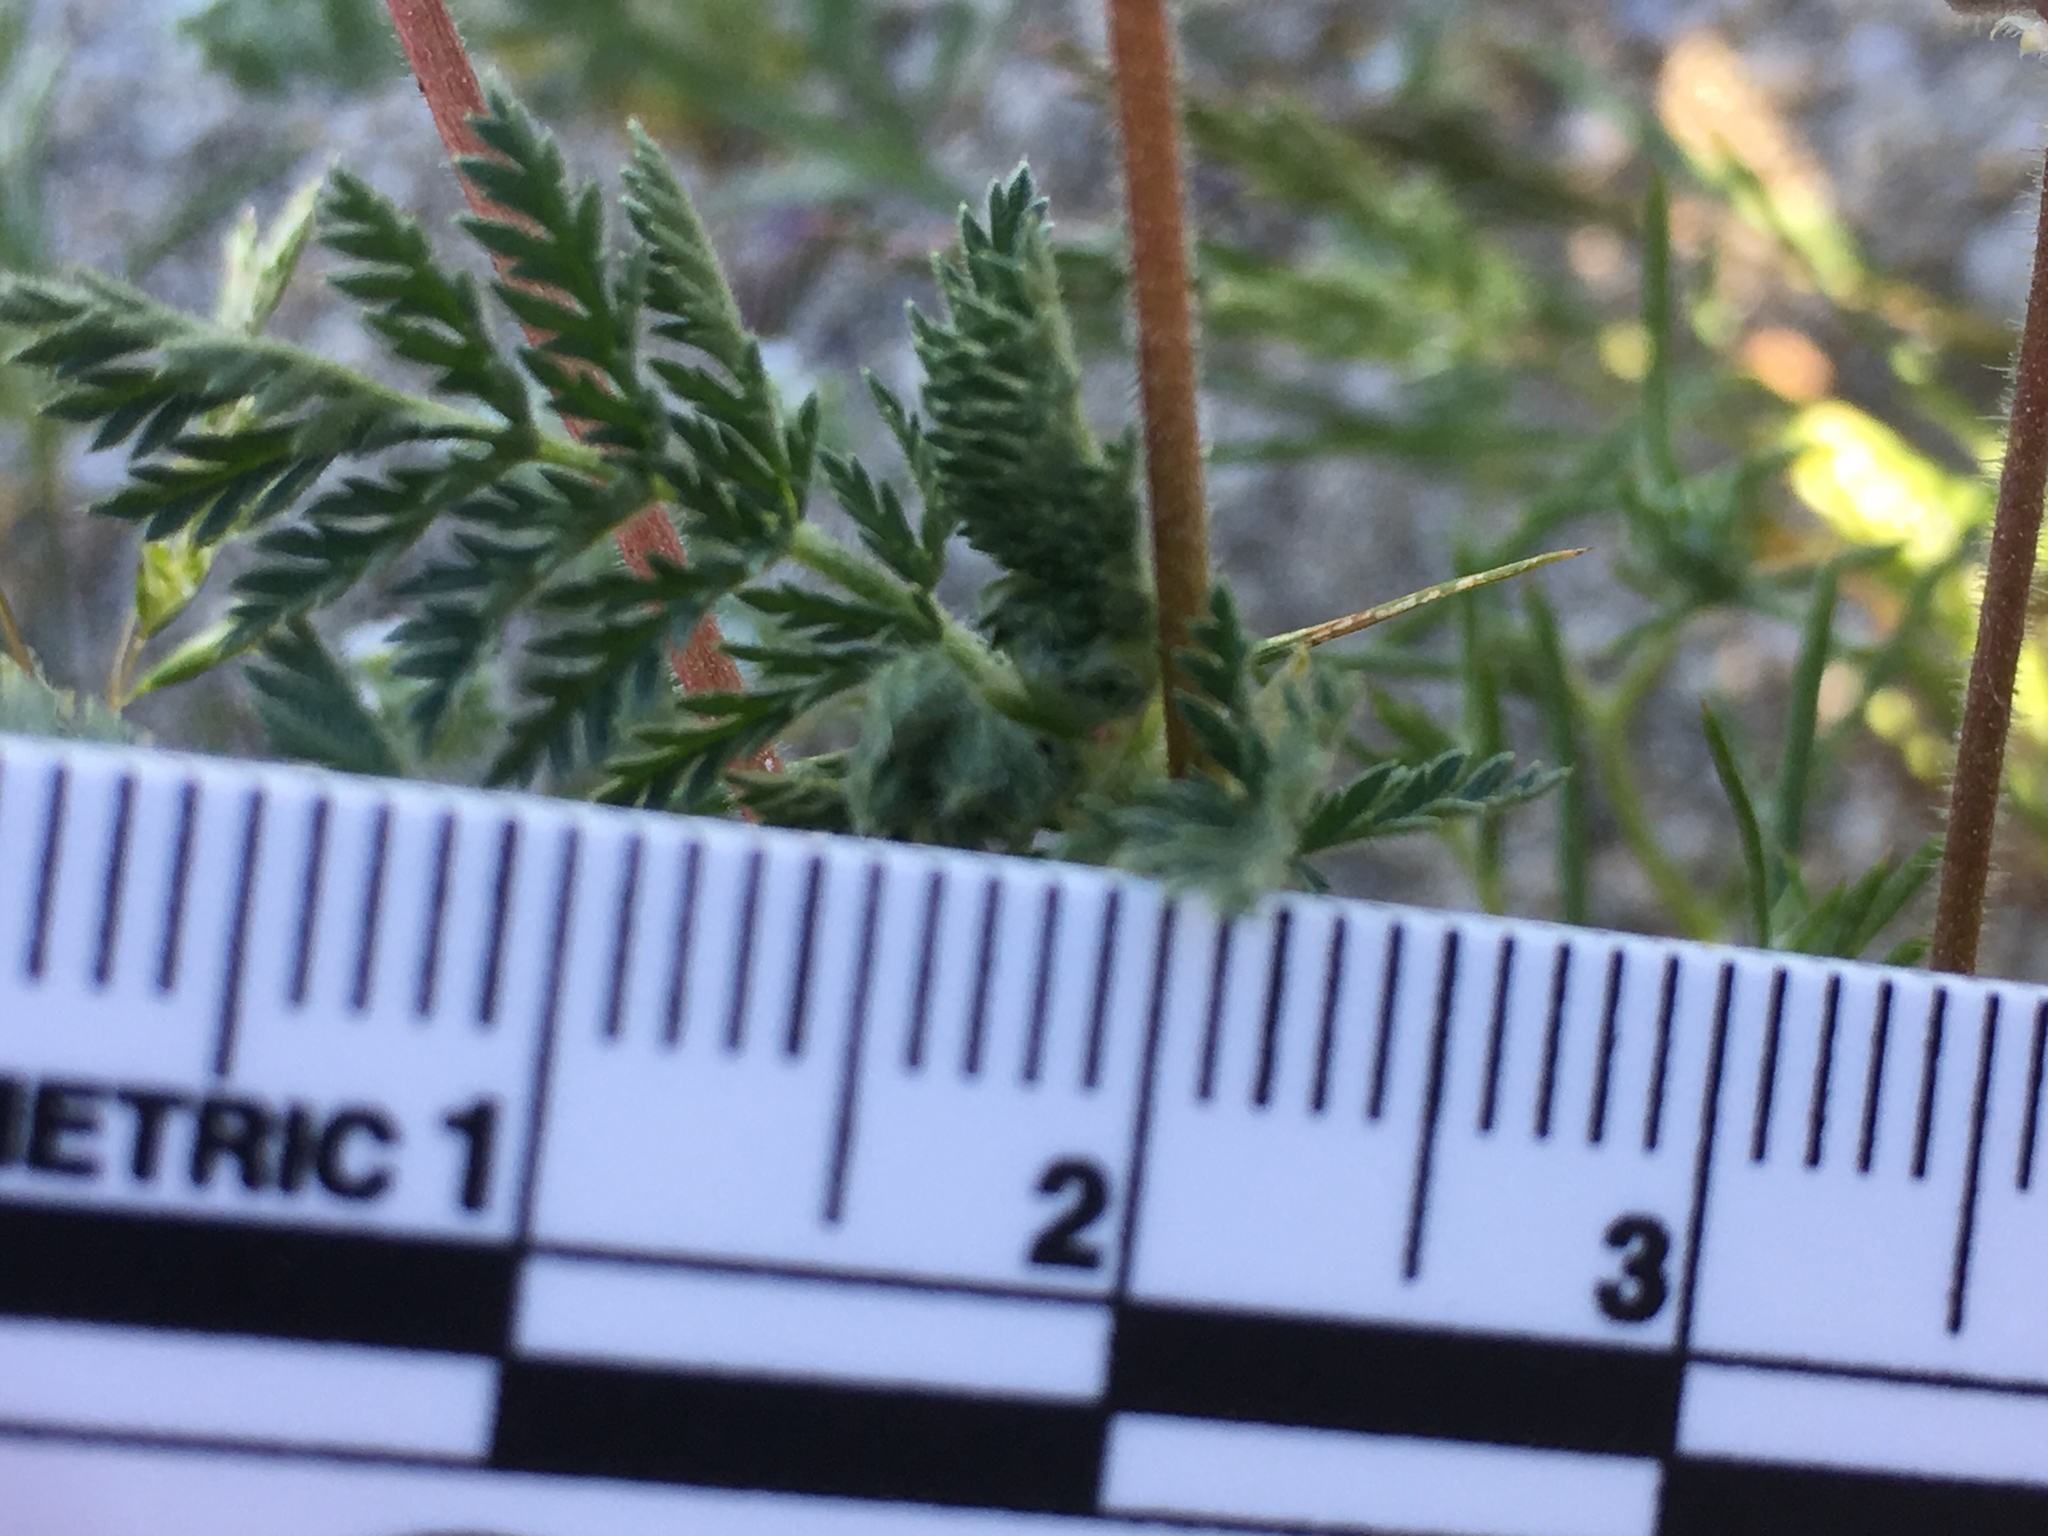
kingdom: Plantae
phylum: Tracheophyta
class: Magnoliopsida
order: Geraniales
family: Geraniaceae
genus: Erodium
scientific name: Erodium cicutarium
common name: Common stork's-bill
